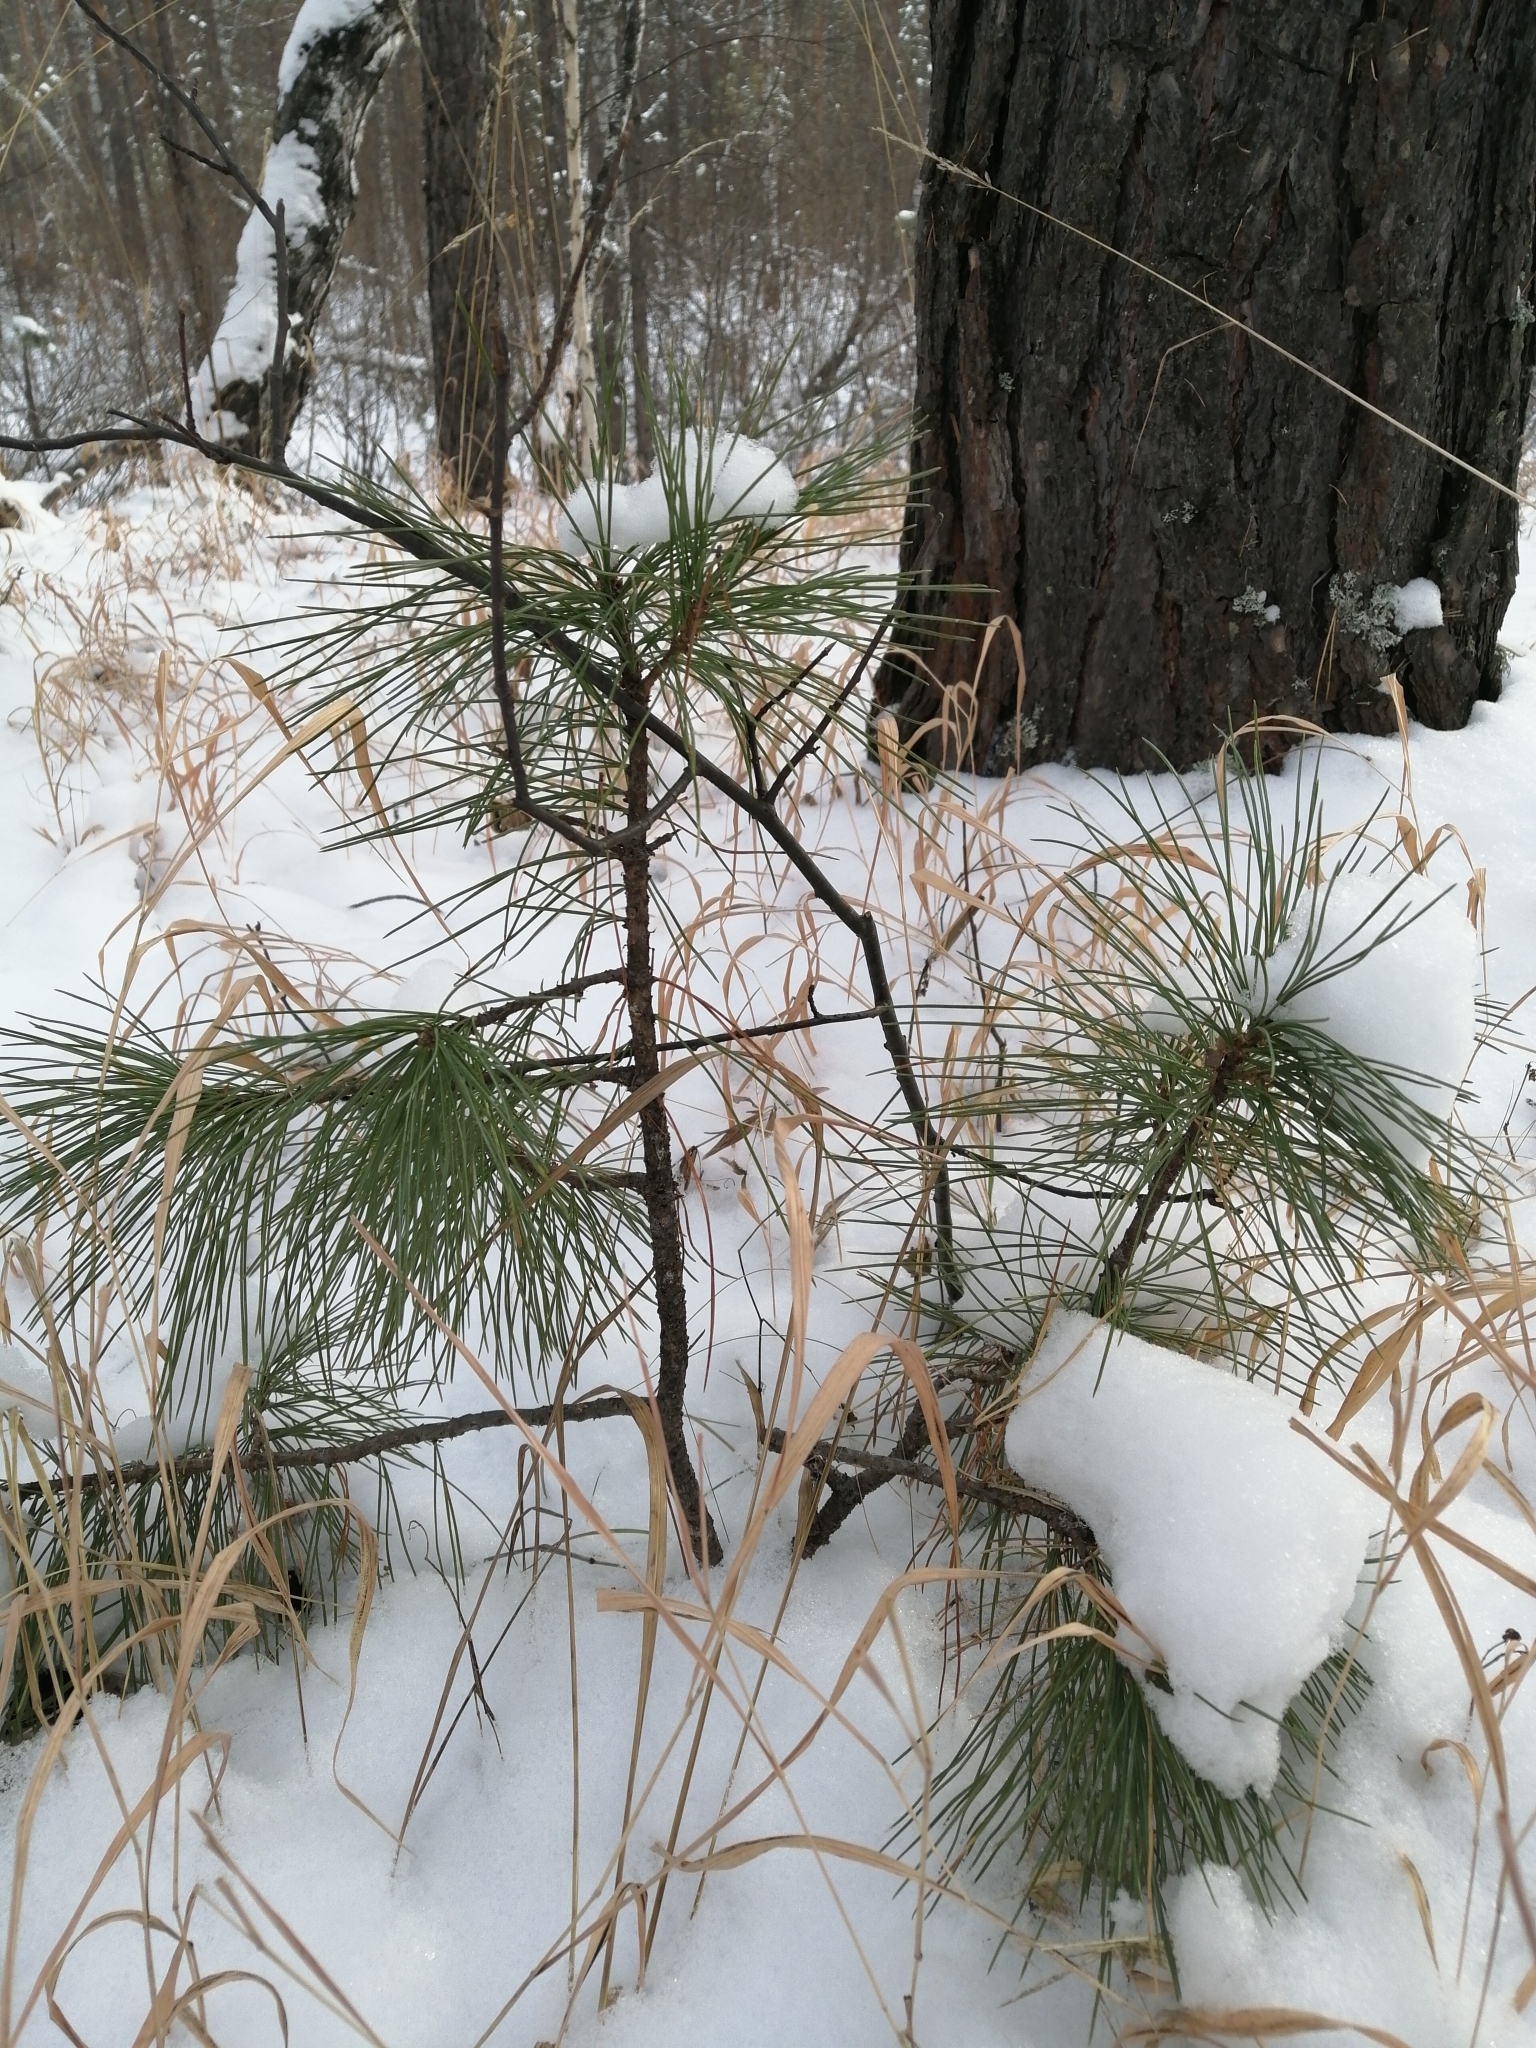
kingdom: Plantae
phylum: Tracheophyta
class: Pinopsida
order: Pinales
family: Pinaceae
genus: Pinus
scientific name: Pinus sibirica
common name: Siberian pine
